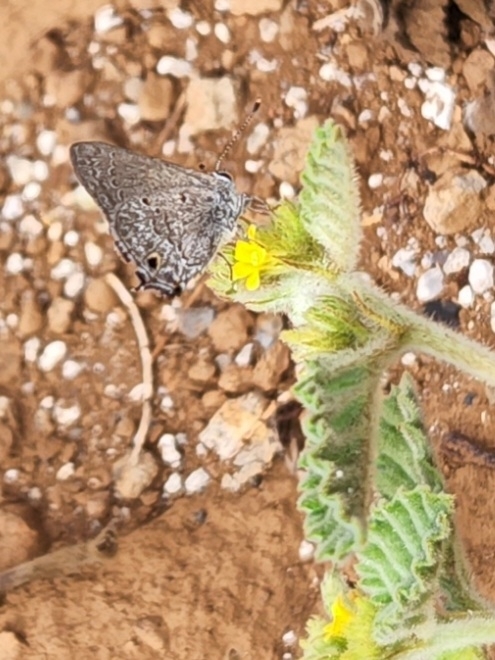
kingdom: Animalia
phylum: Arthropoda
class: Insecta
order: Lepidoptera
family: Lycaenidae
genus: Callicista
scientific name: Callicista columella
